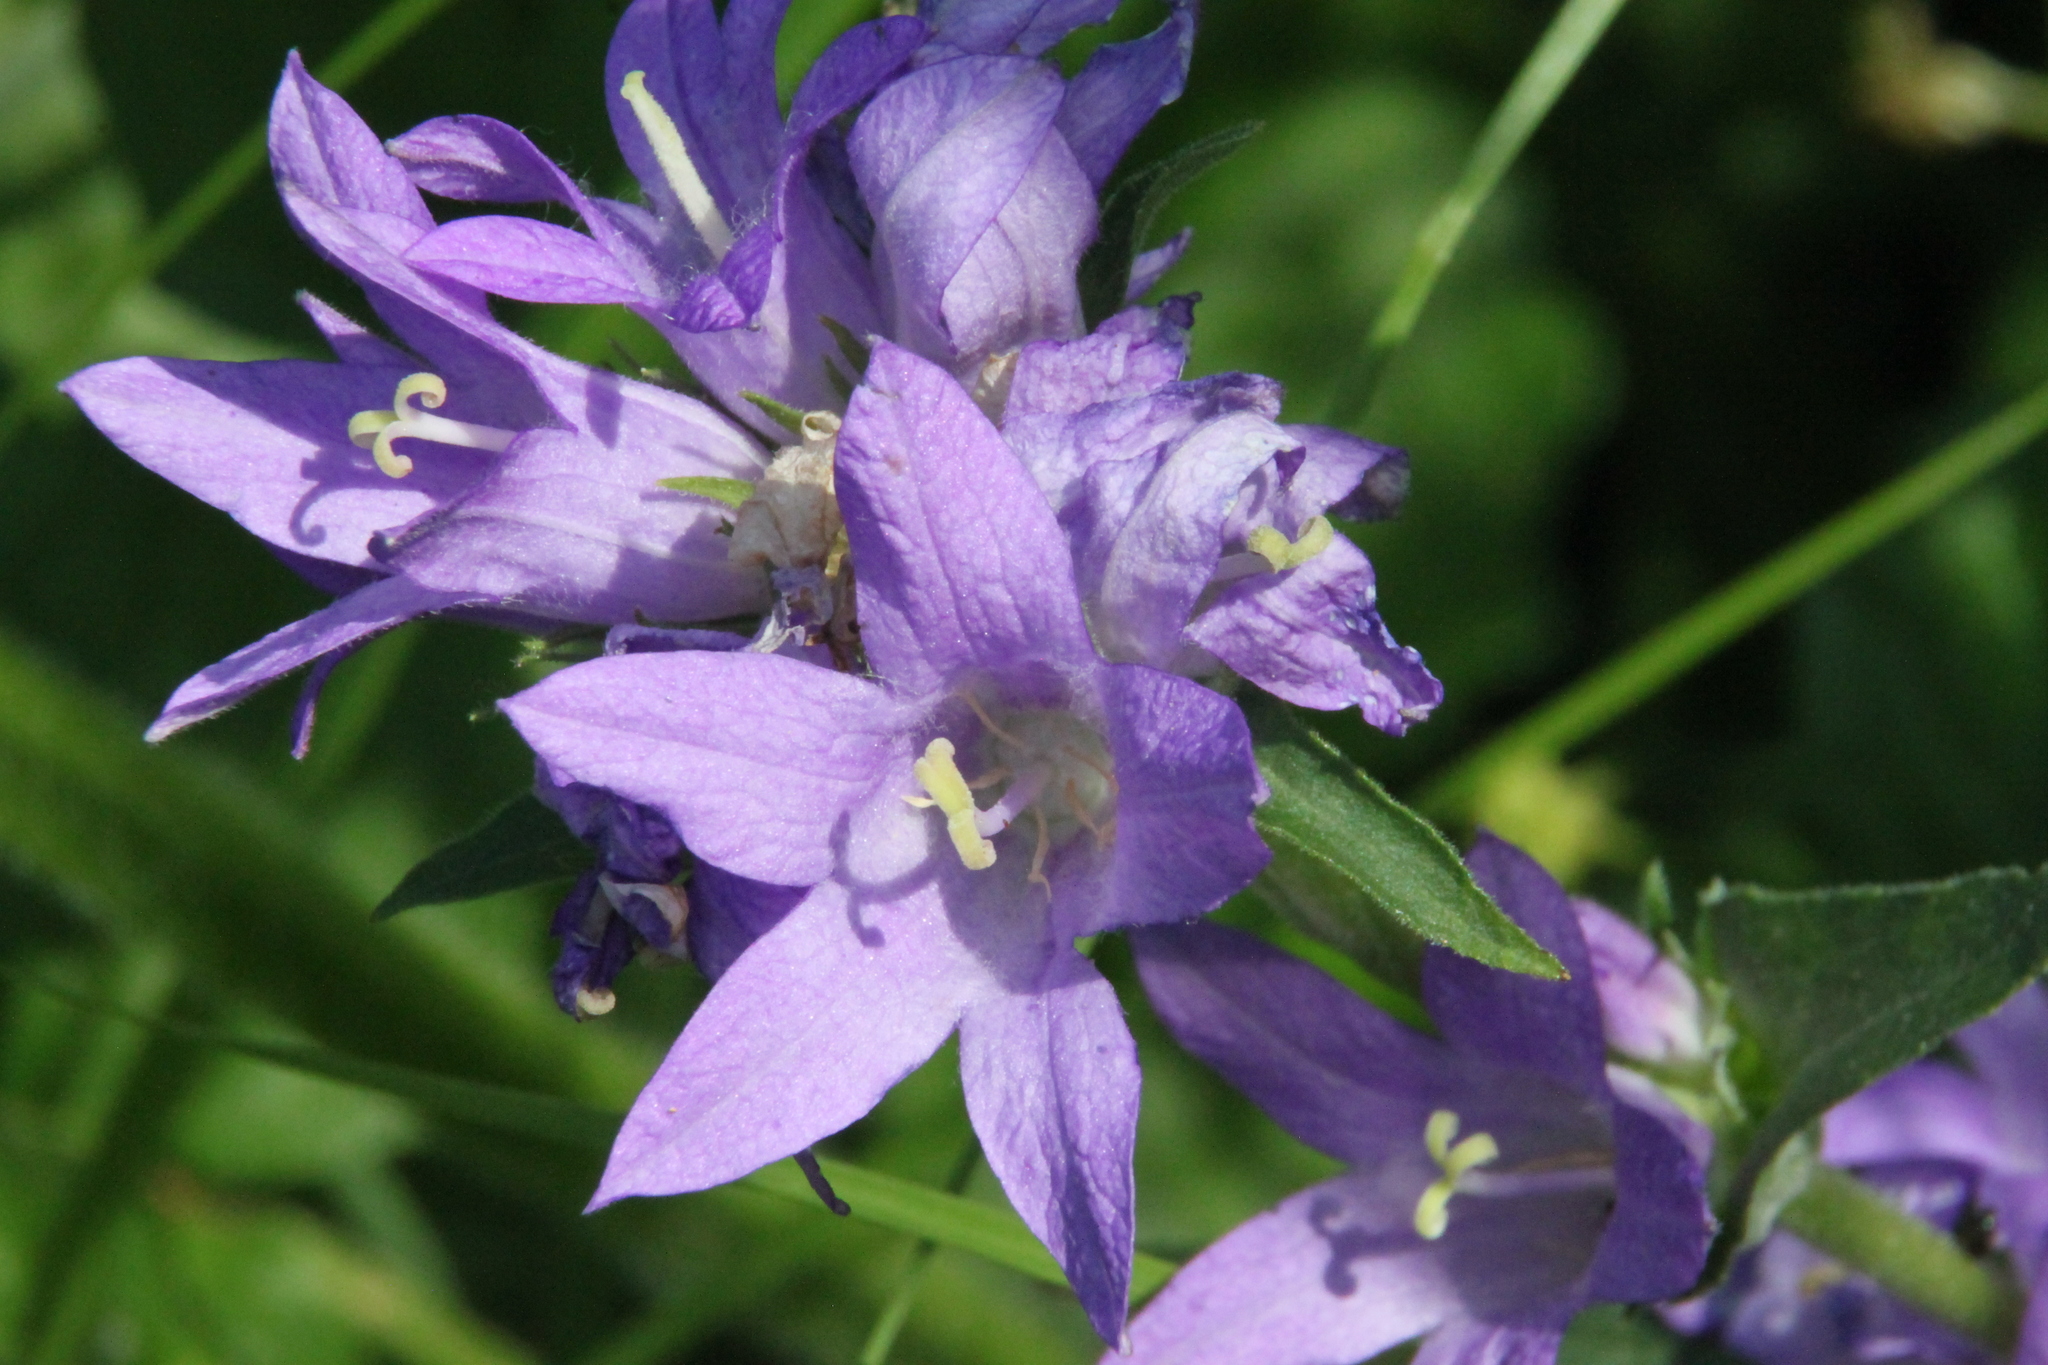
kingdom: Plantae
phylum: Tracheophyta
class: Magnoliopsida
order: Asterales
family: Campanulaceae
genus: Campanula
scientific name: Campanula glomerata
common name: Clustered bellflower
